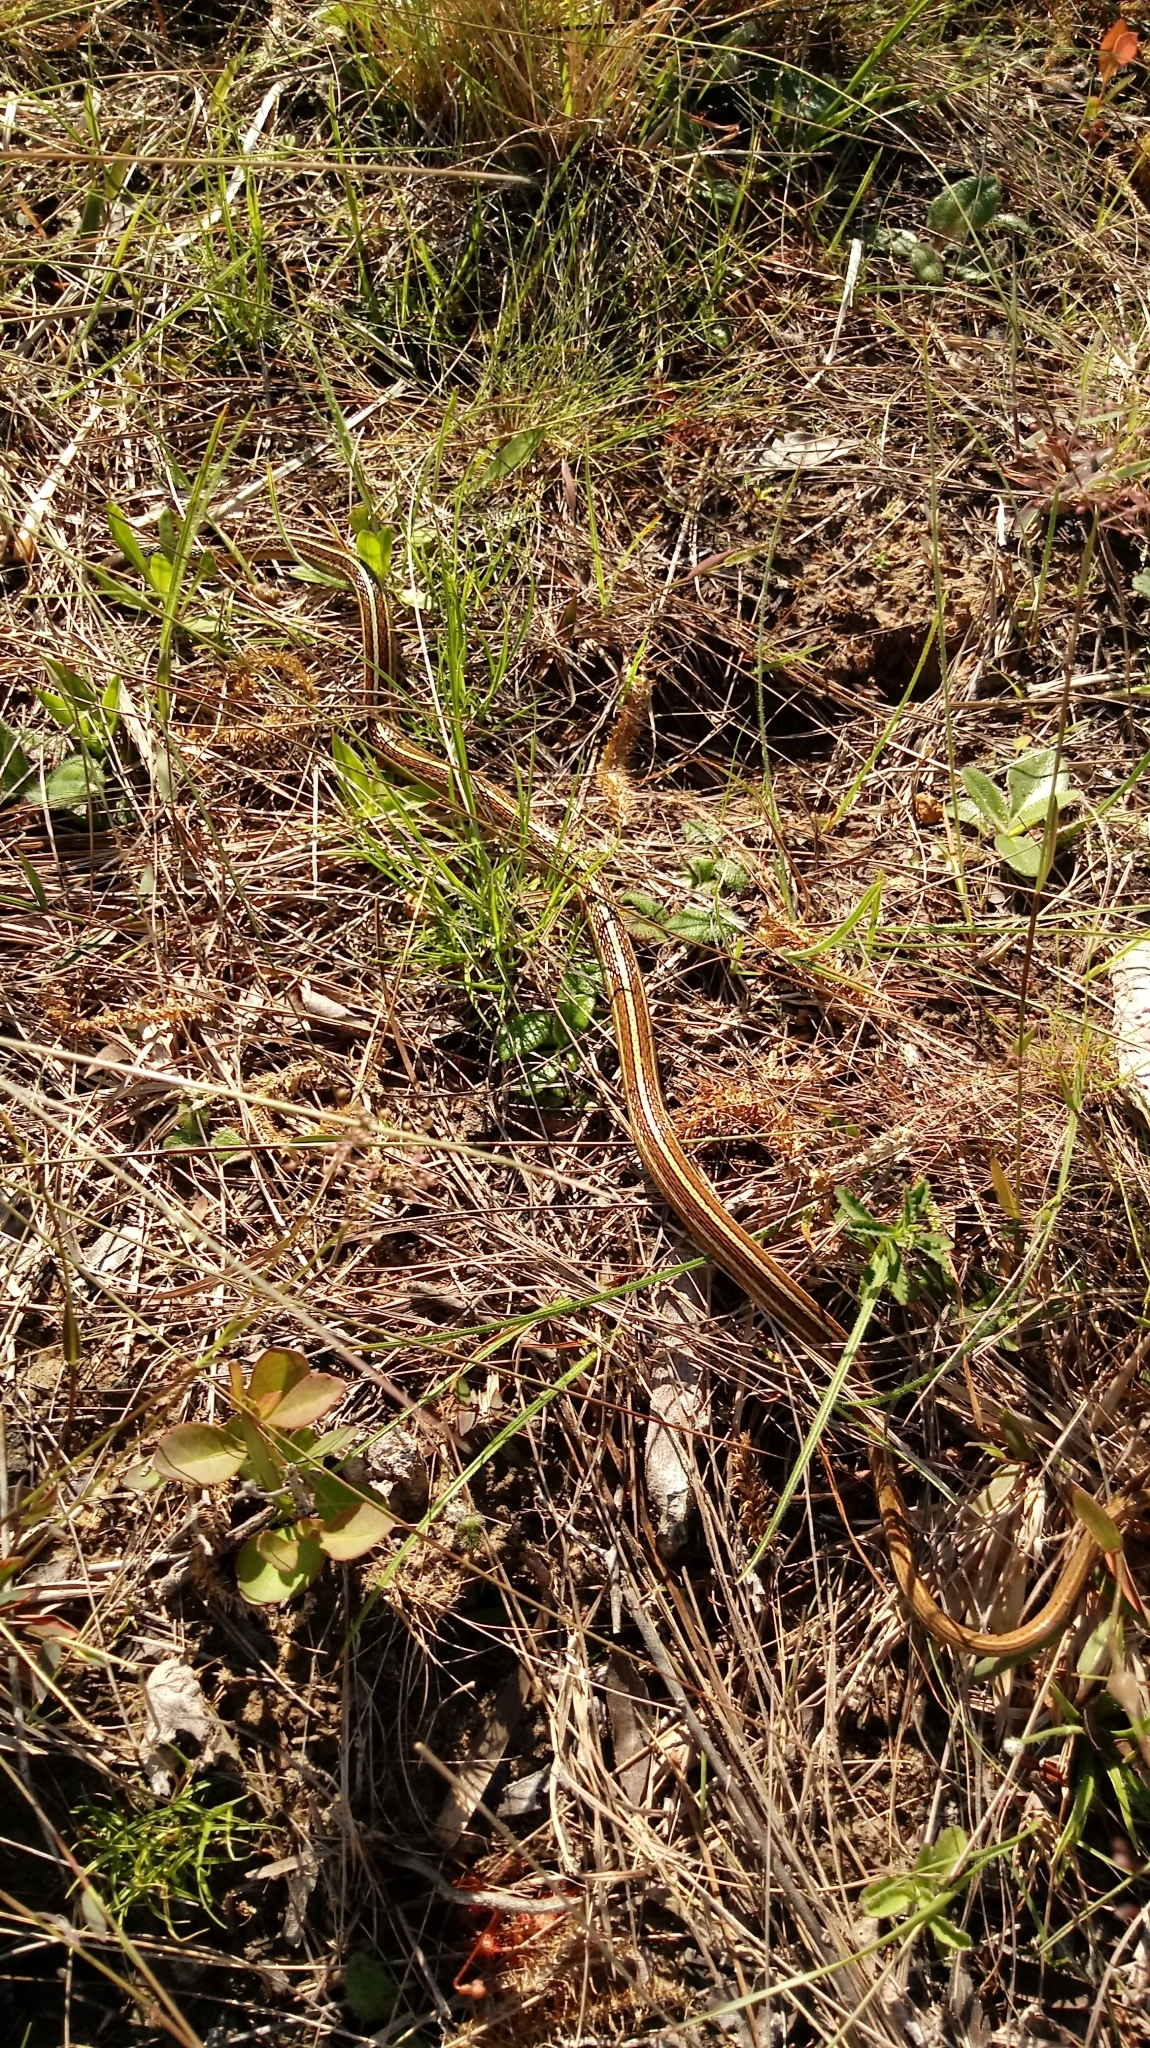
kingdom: Animalia
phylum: Chordata
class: Squamata
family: Colubridae
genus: Thamnophis
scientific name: Thamnophis saurita
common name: Eastern ribbonsnake
